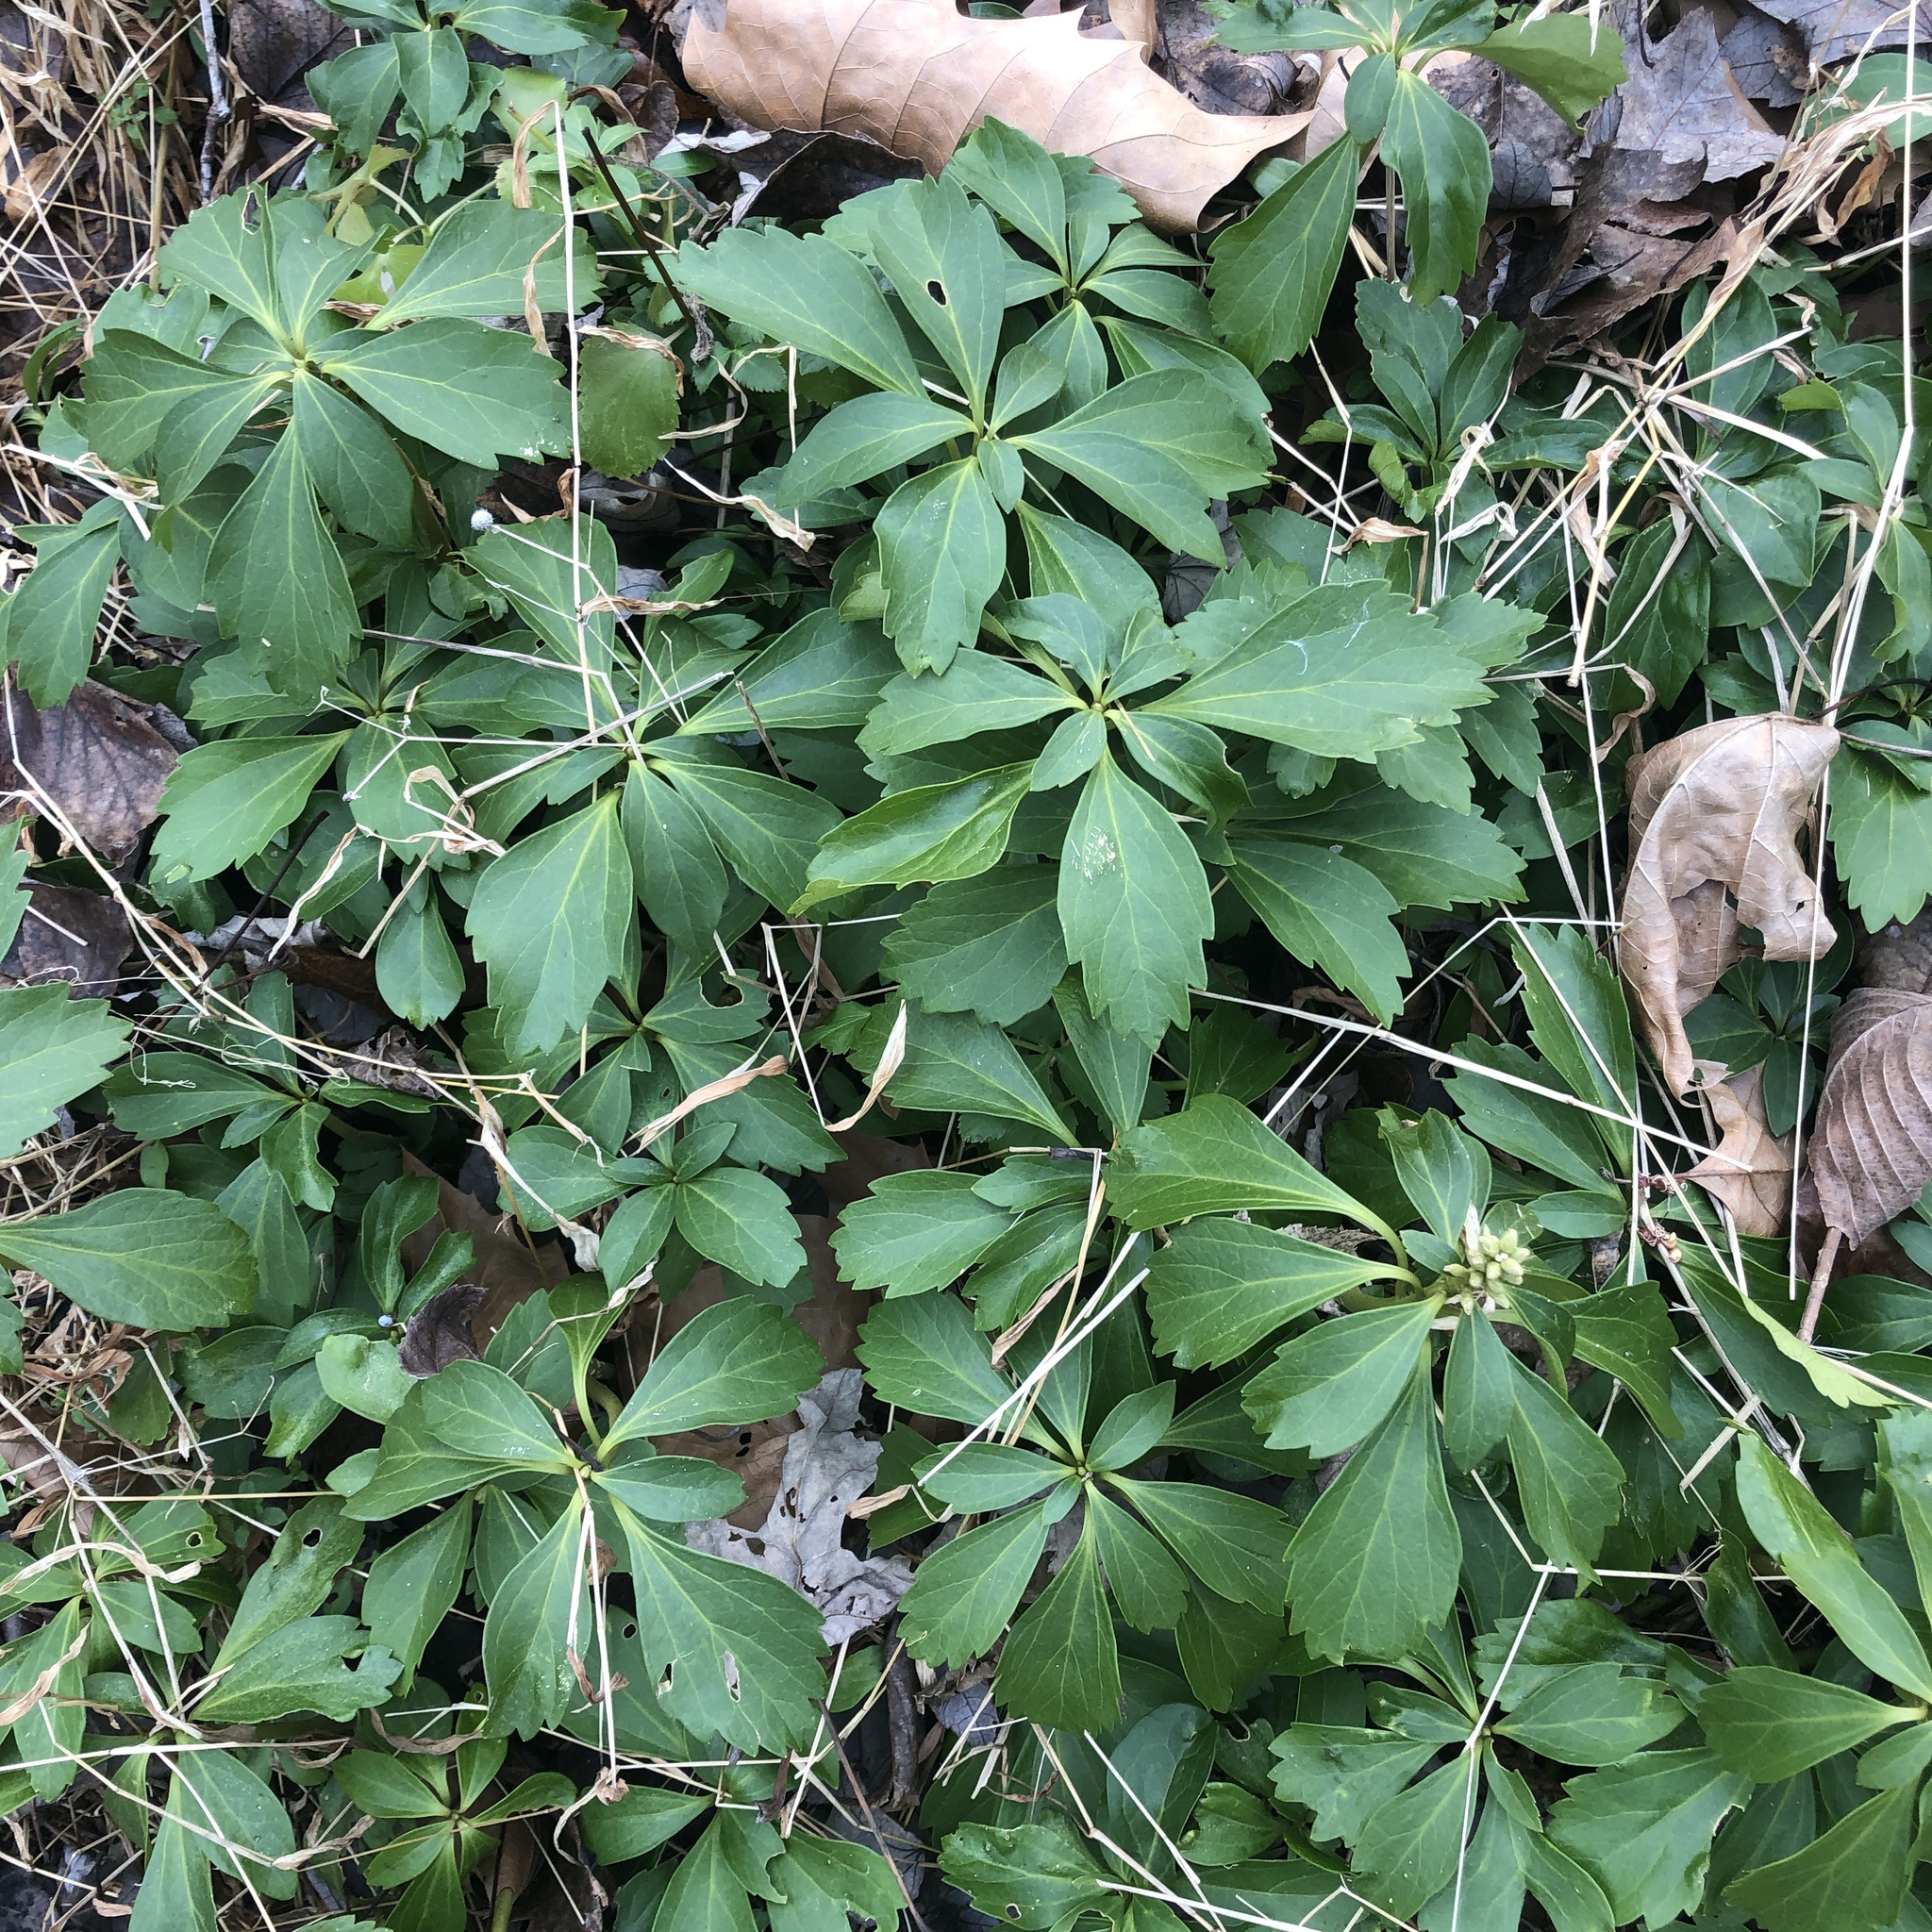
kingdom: Plantae
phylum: Tracheophyta
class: Magnoliopsida
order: Buxales
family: Buxaceae
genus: Pachysandra
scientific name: Pachysandra terminalis
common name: Japanese pachysandra
